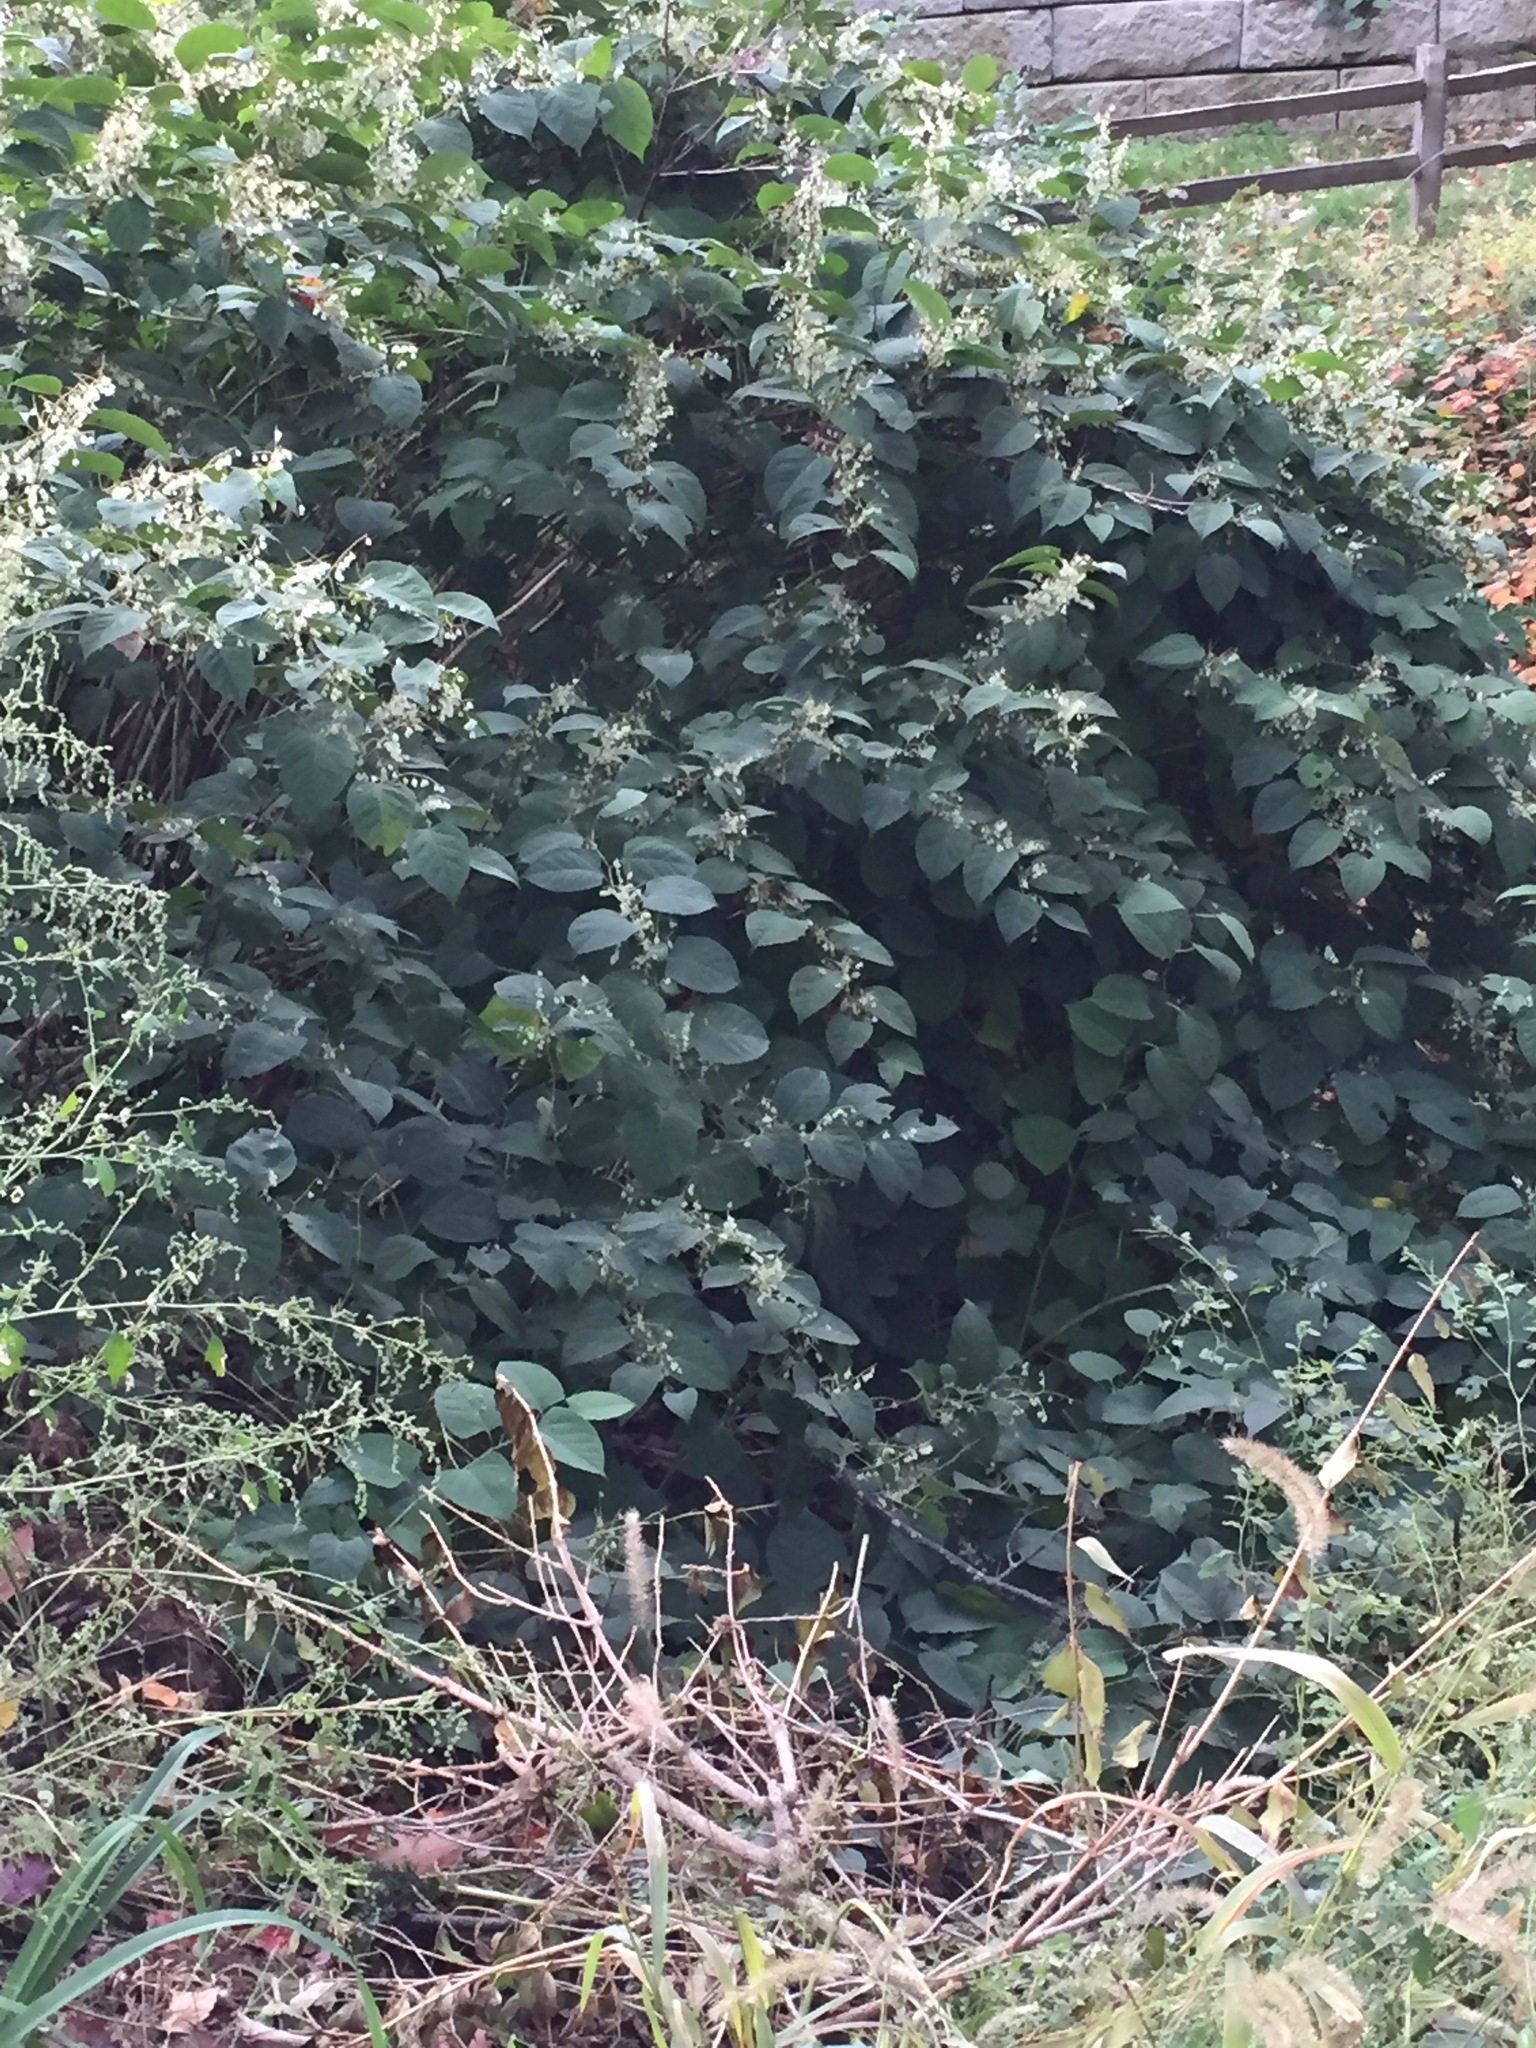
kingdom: Plantae
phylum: Tracheophyta
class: Magnoliopsida
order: Caryophyllales
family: Polygonaceae
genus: Reynoutria
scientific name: Reynoutria japonica
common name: Japanese knotweed
